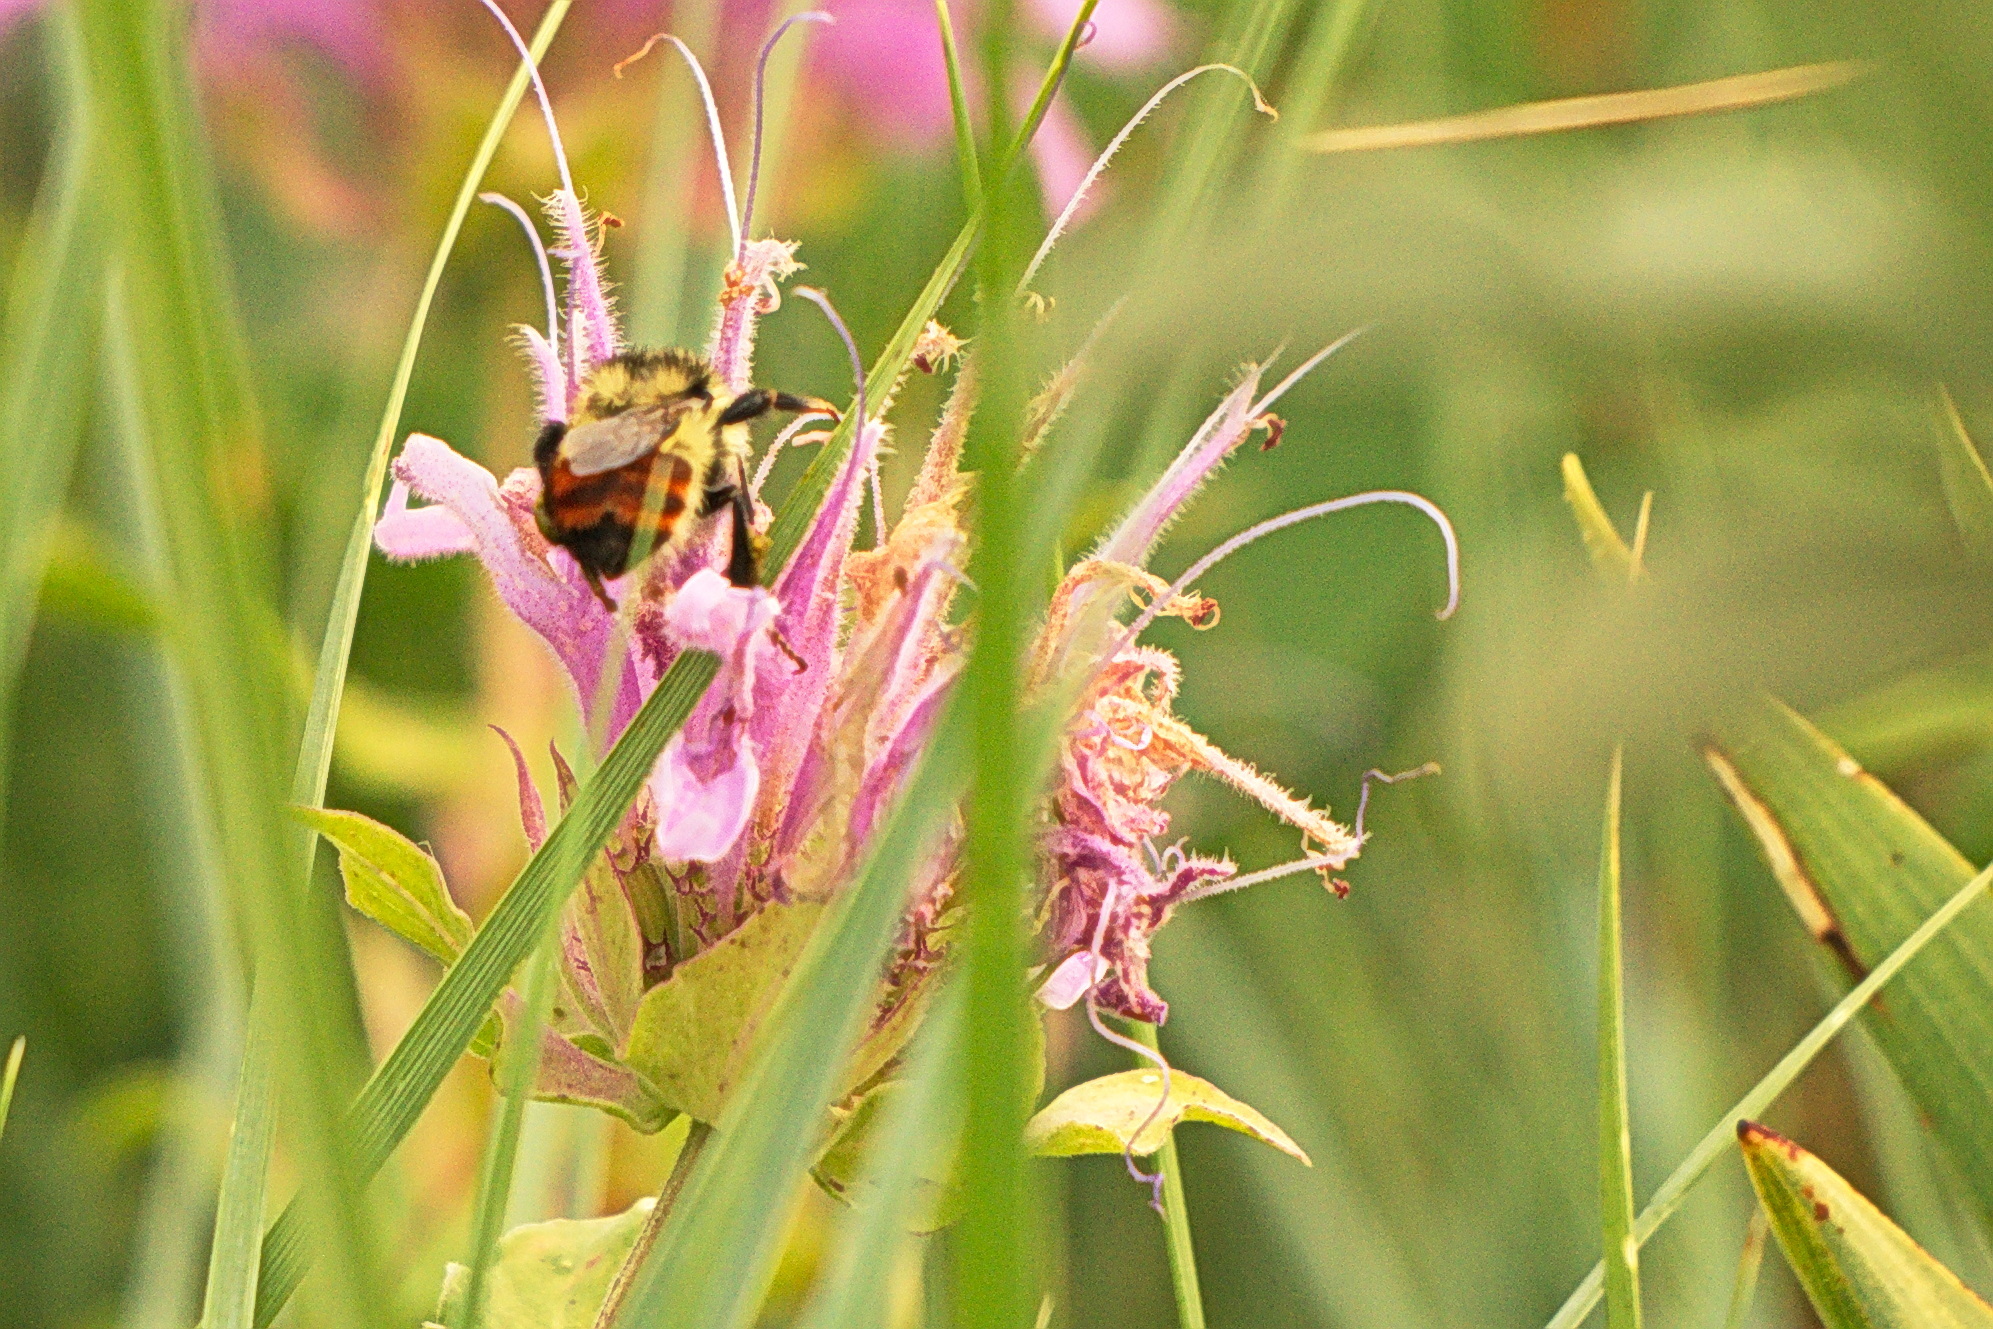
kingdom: Animalia
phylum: Arthropoda
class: Insecta
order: Hymenoptera
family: Apidae
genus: Bombus
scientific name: Bombus centralis
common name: Central bumble bee
